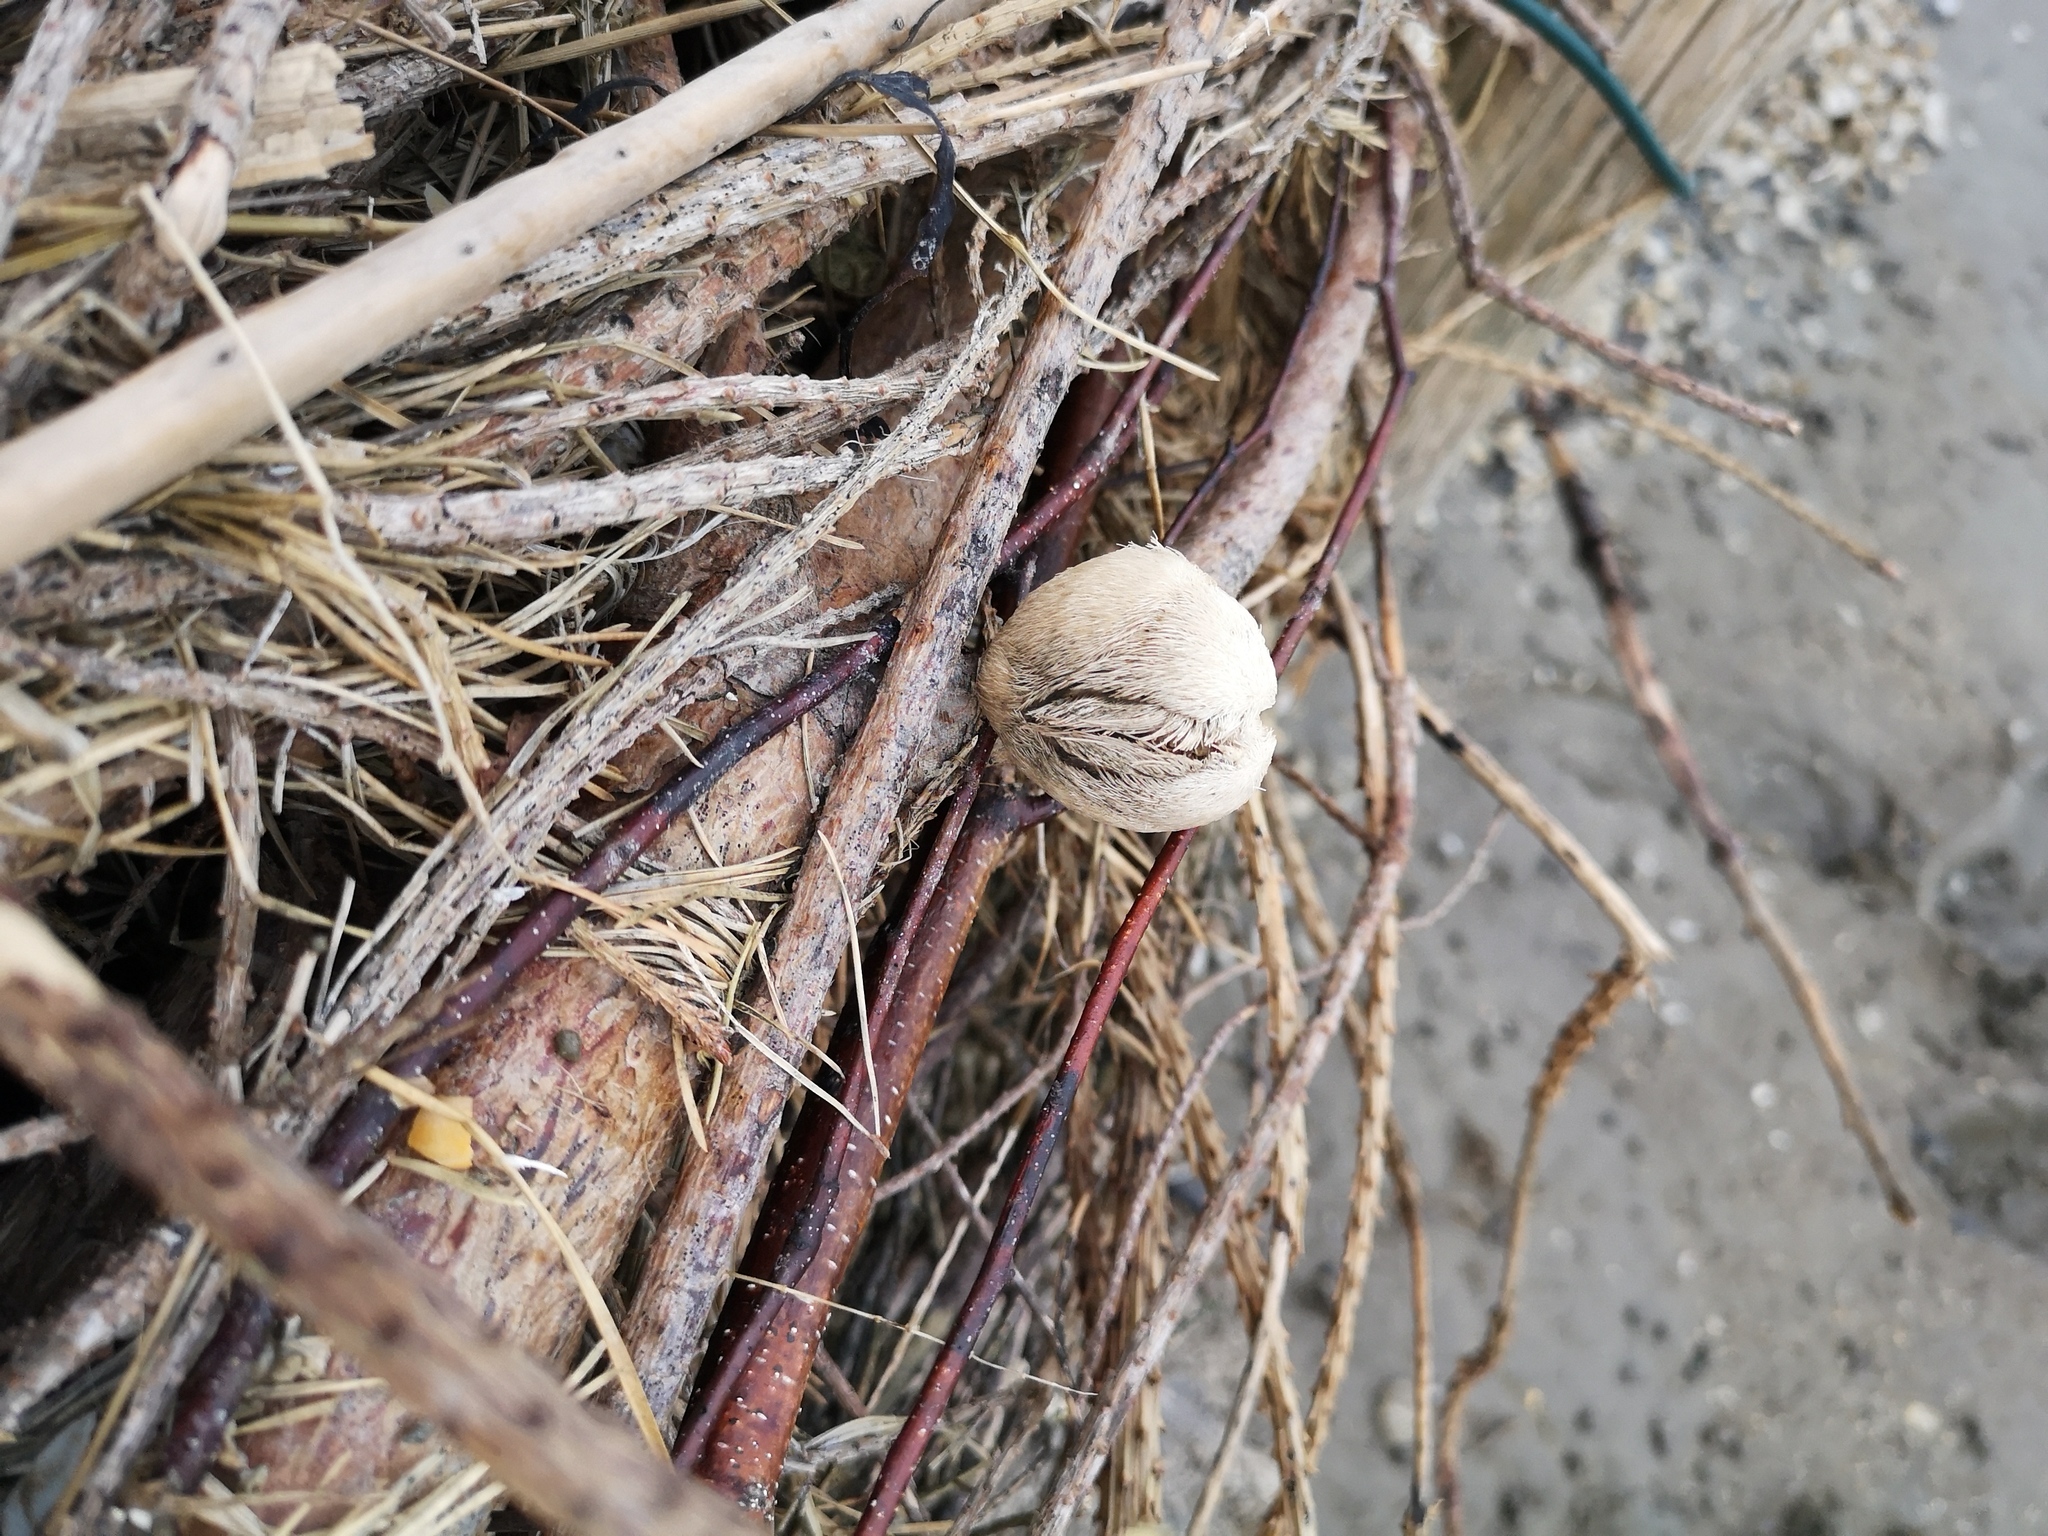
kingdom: Animalia
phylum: Echinodermata
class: Echinoidea
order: Spatangoida
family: Loveniidae
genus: Echinocardium
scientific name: Echinocardium cordatum
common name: Heart-urchin
